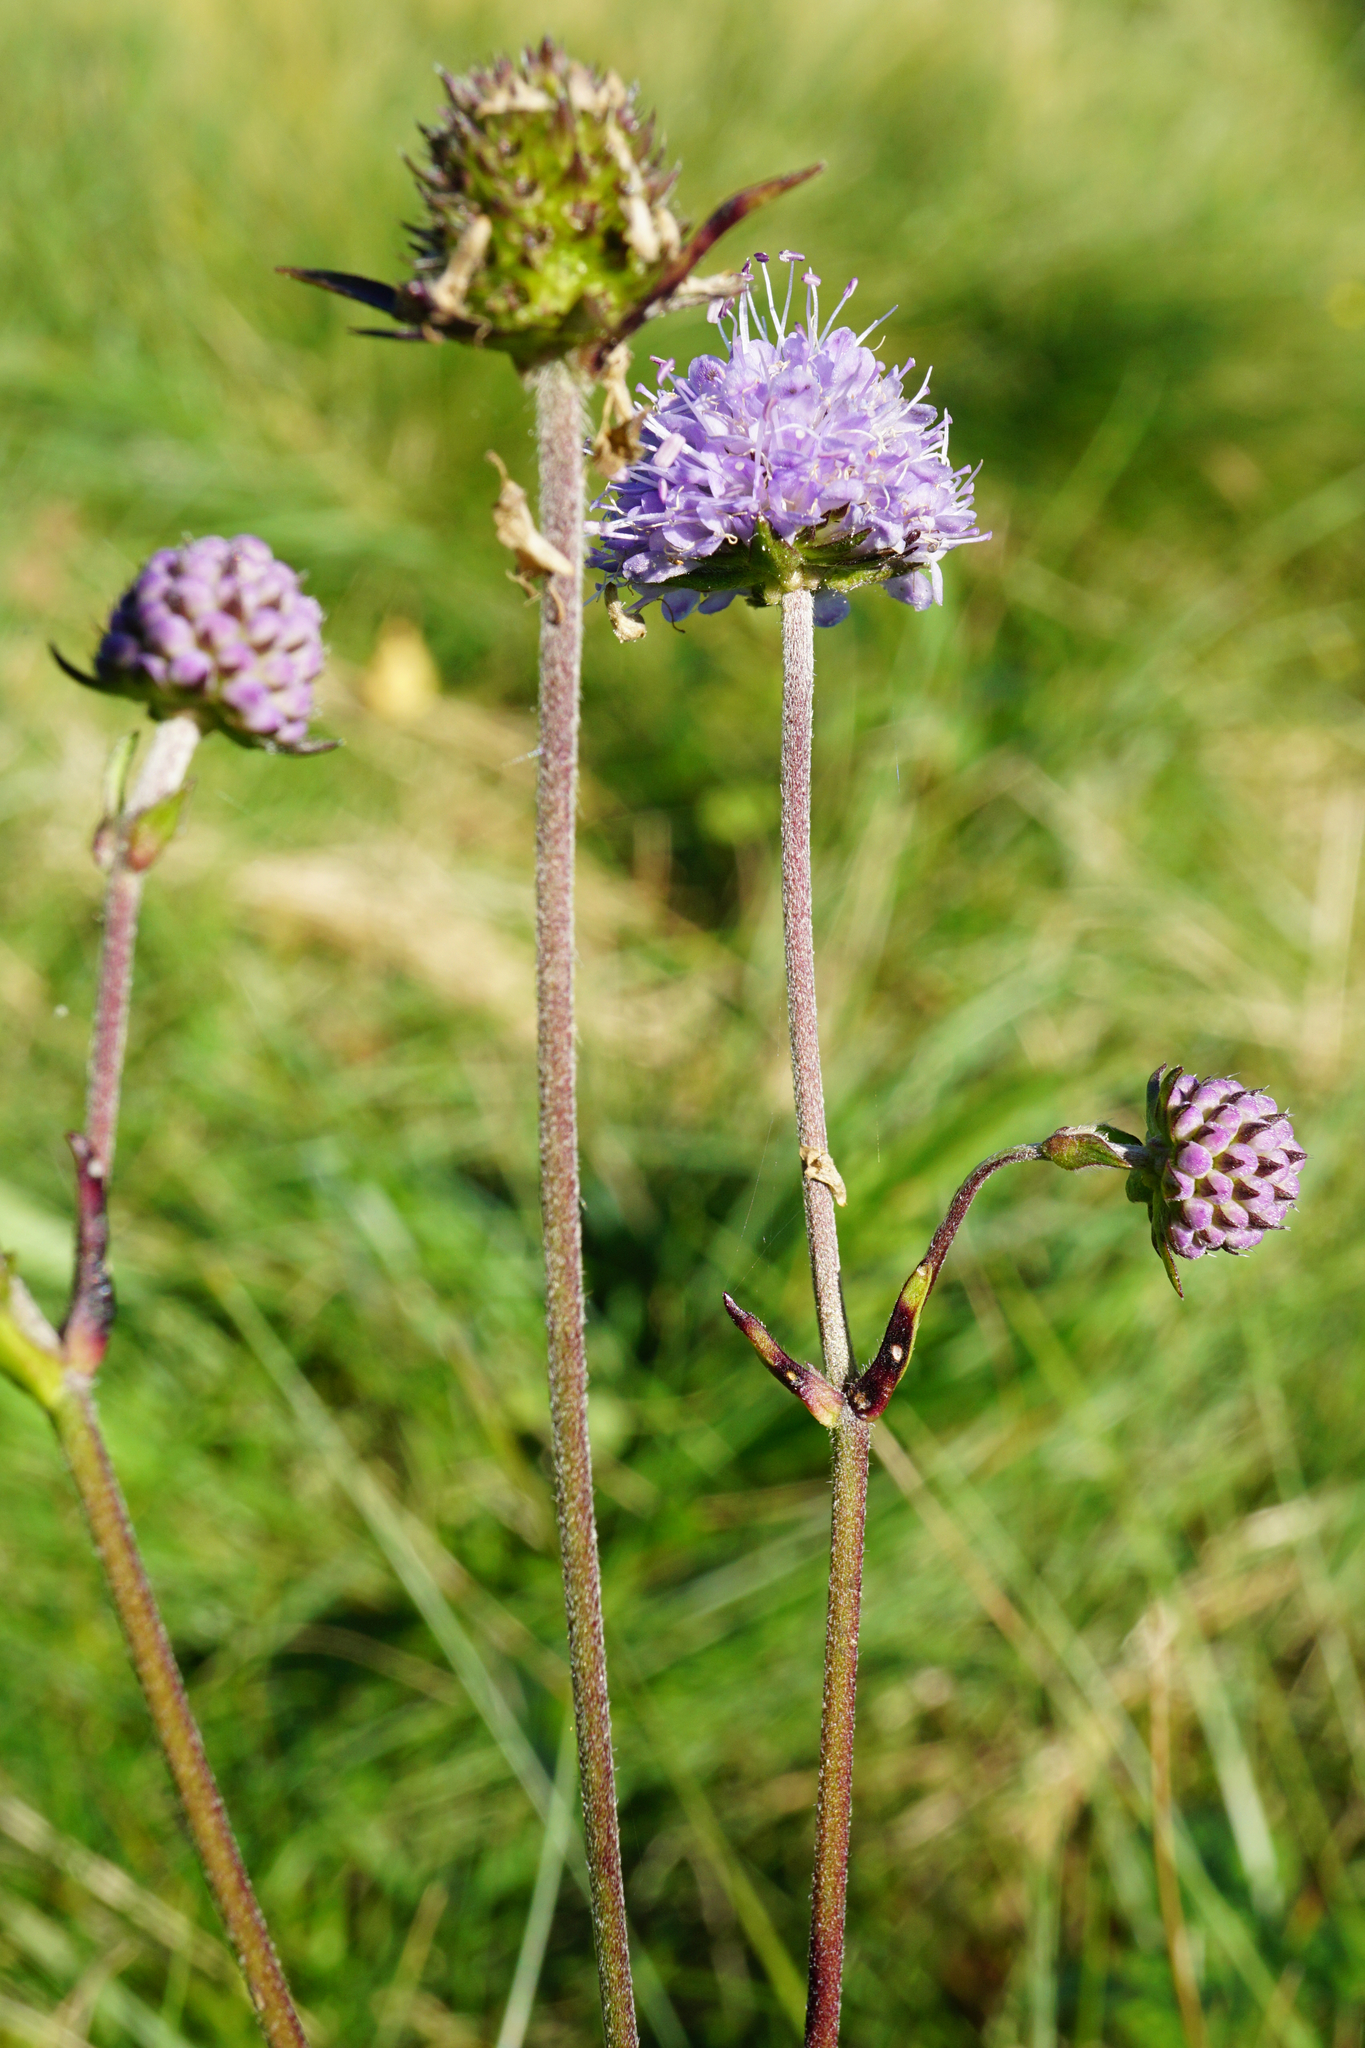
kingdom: Plantae
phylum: Tracheophyta
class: Magnoliopsida
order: Dipsacales
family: Caprifoliaceae
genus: Succisa
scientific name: Succisa pratensis
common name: Devil's-bit
